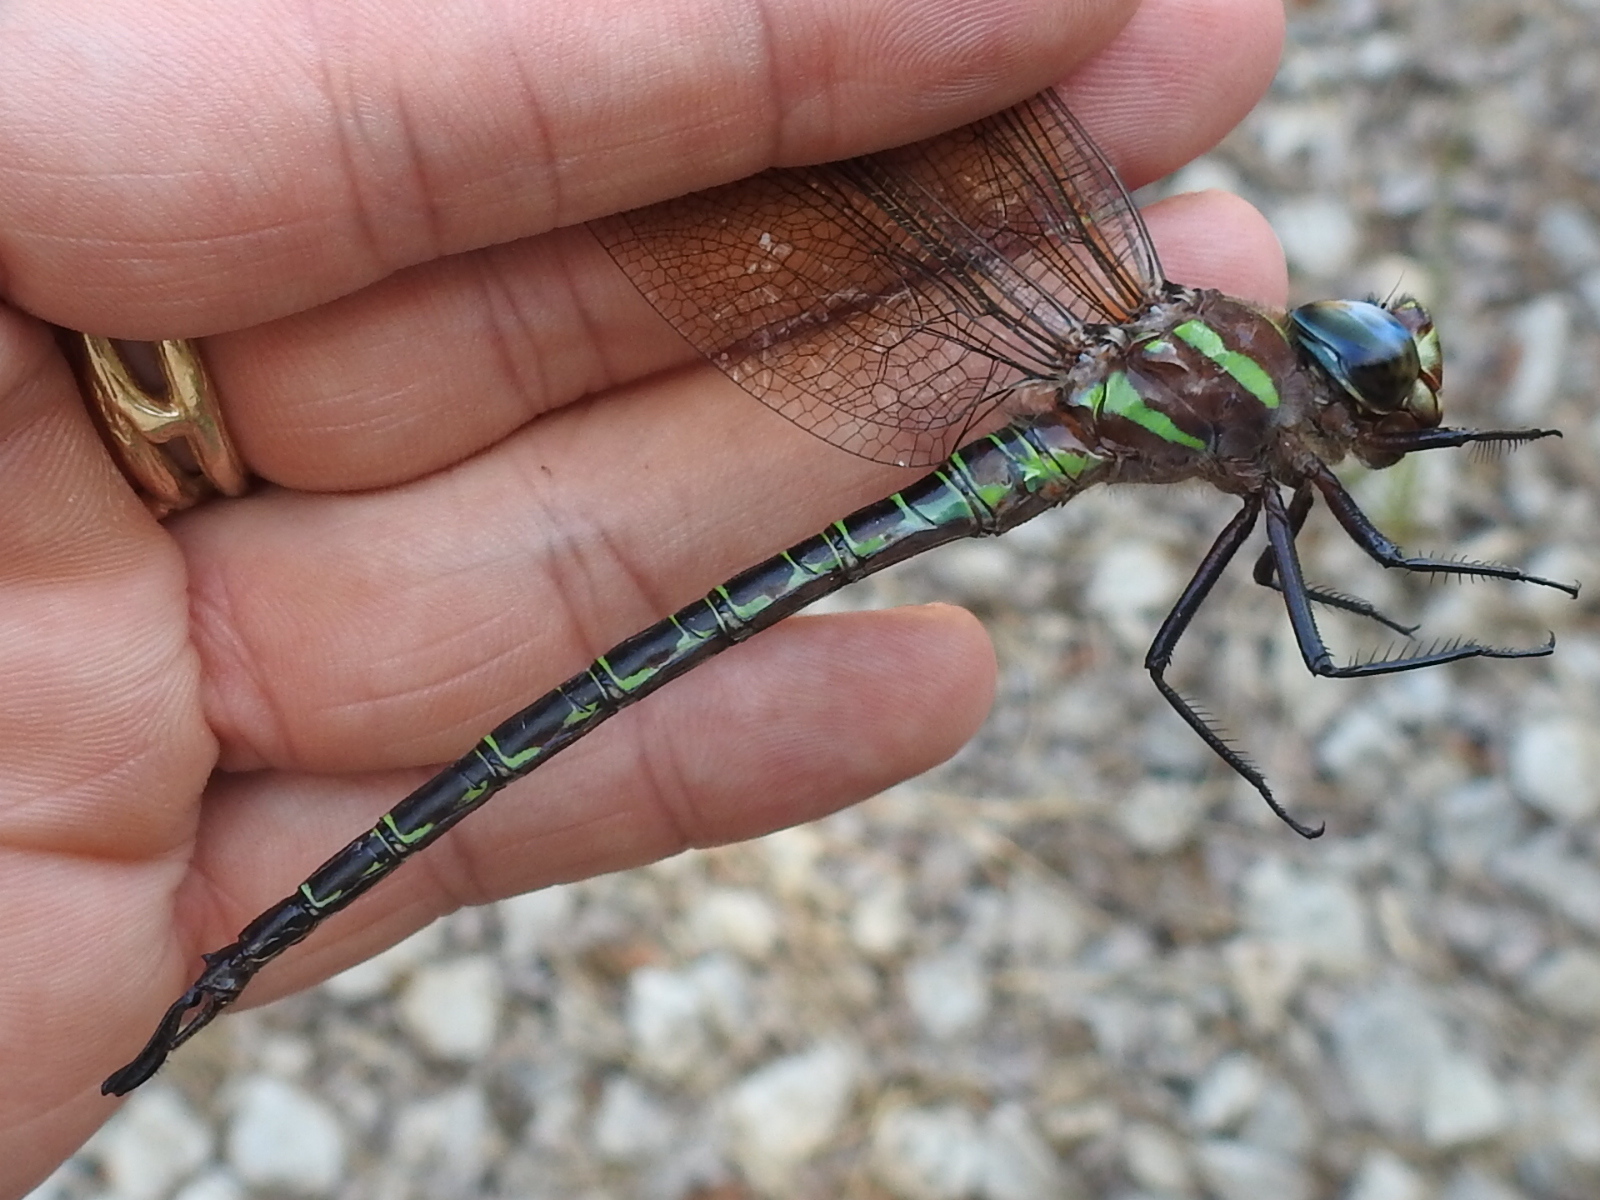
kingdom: Animalia
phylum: Arthropoda
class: Insecta
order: Odonata
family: Aeshnidae
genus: Epiaeschna
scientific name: Epiaeschna heros
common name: Swamp darner
